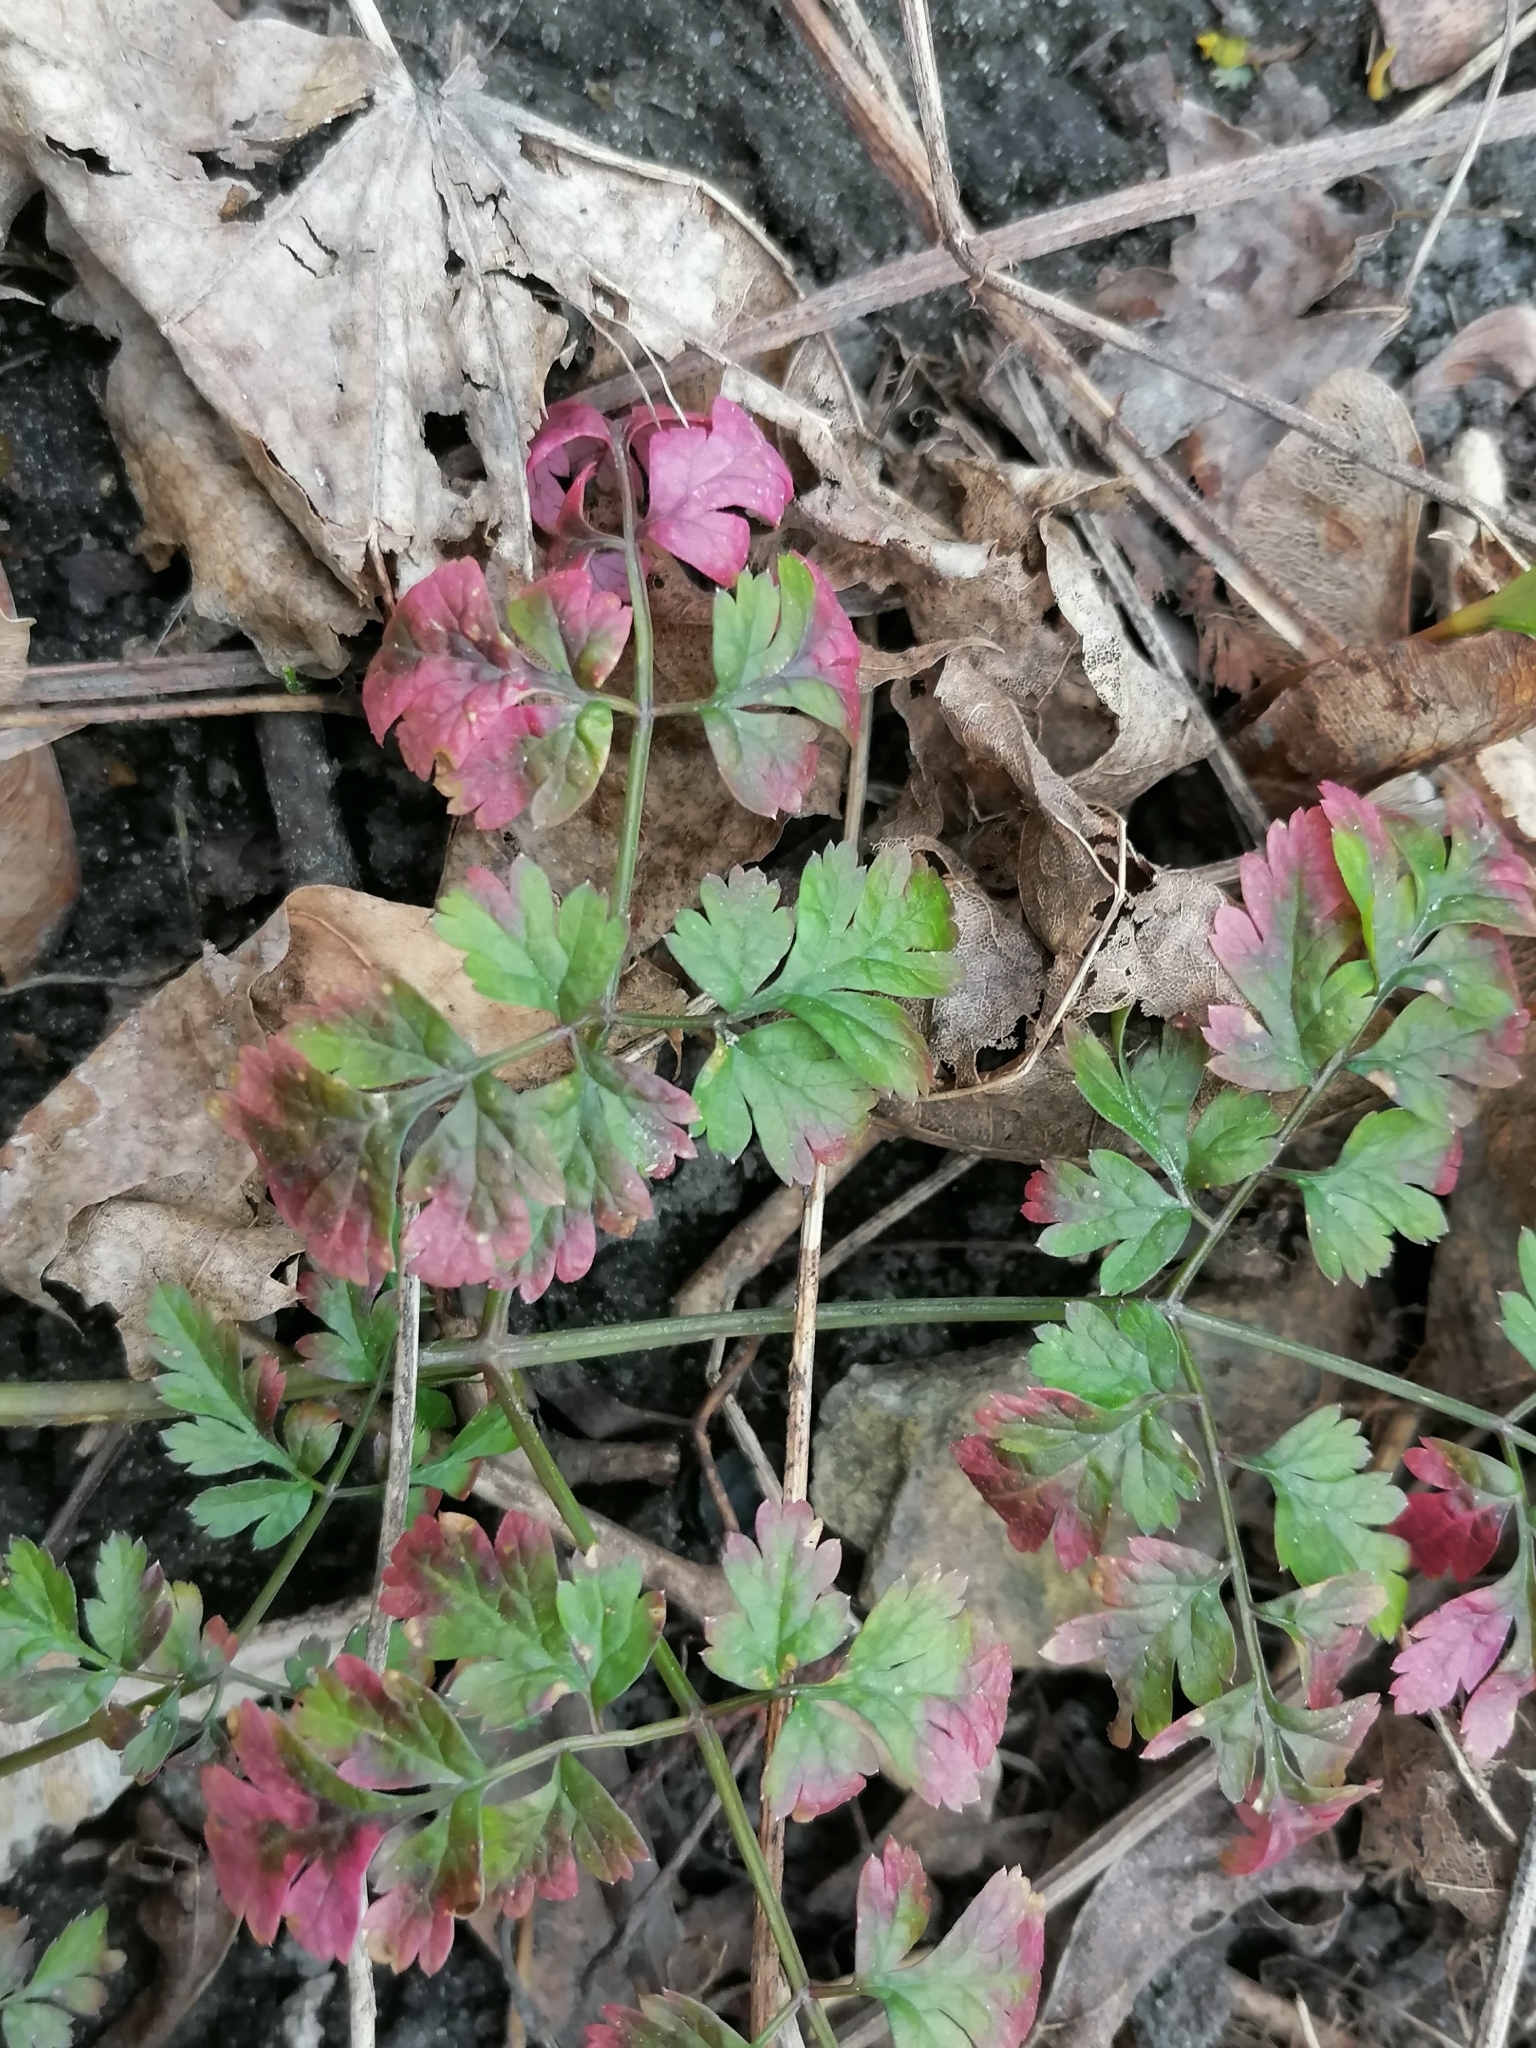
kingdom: Plantae
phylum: Tracheophyta
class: Magnoliopsida
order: Geraniales
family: Geraniaceae
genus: Geranium
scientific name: Geranium robertianum
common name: Herb-robert
